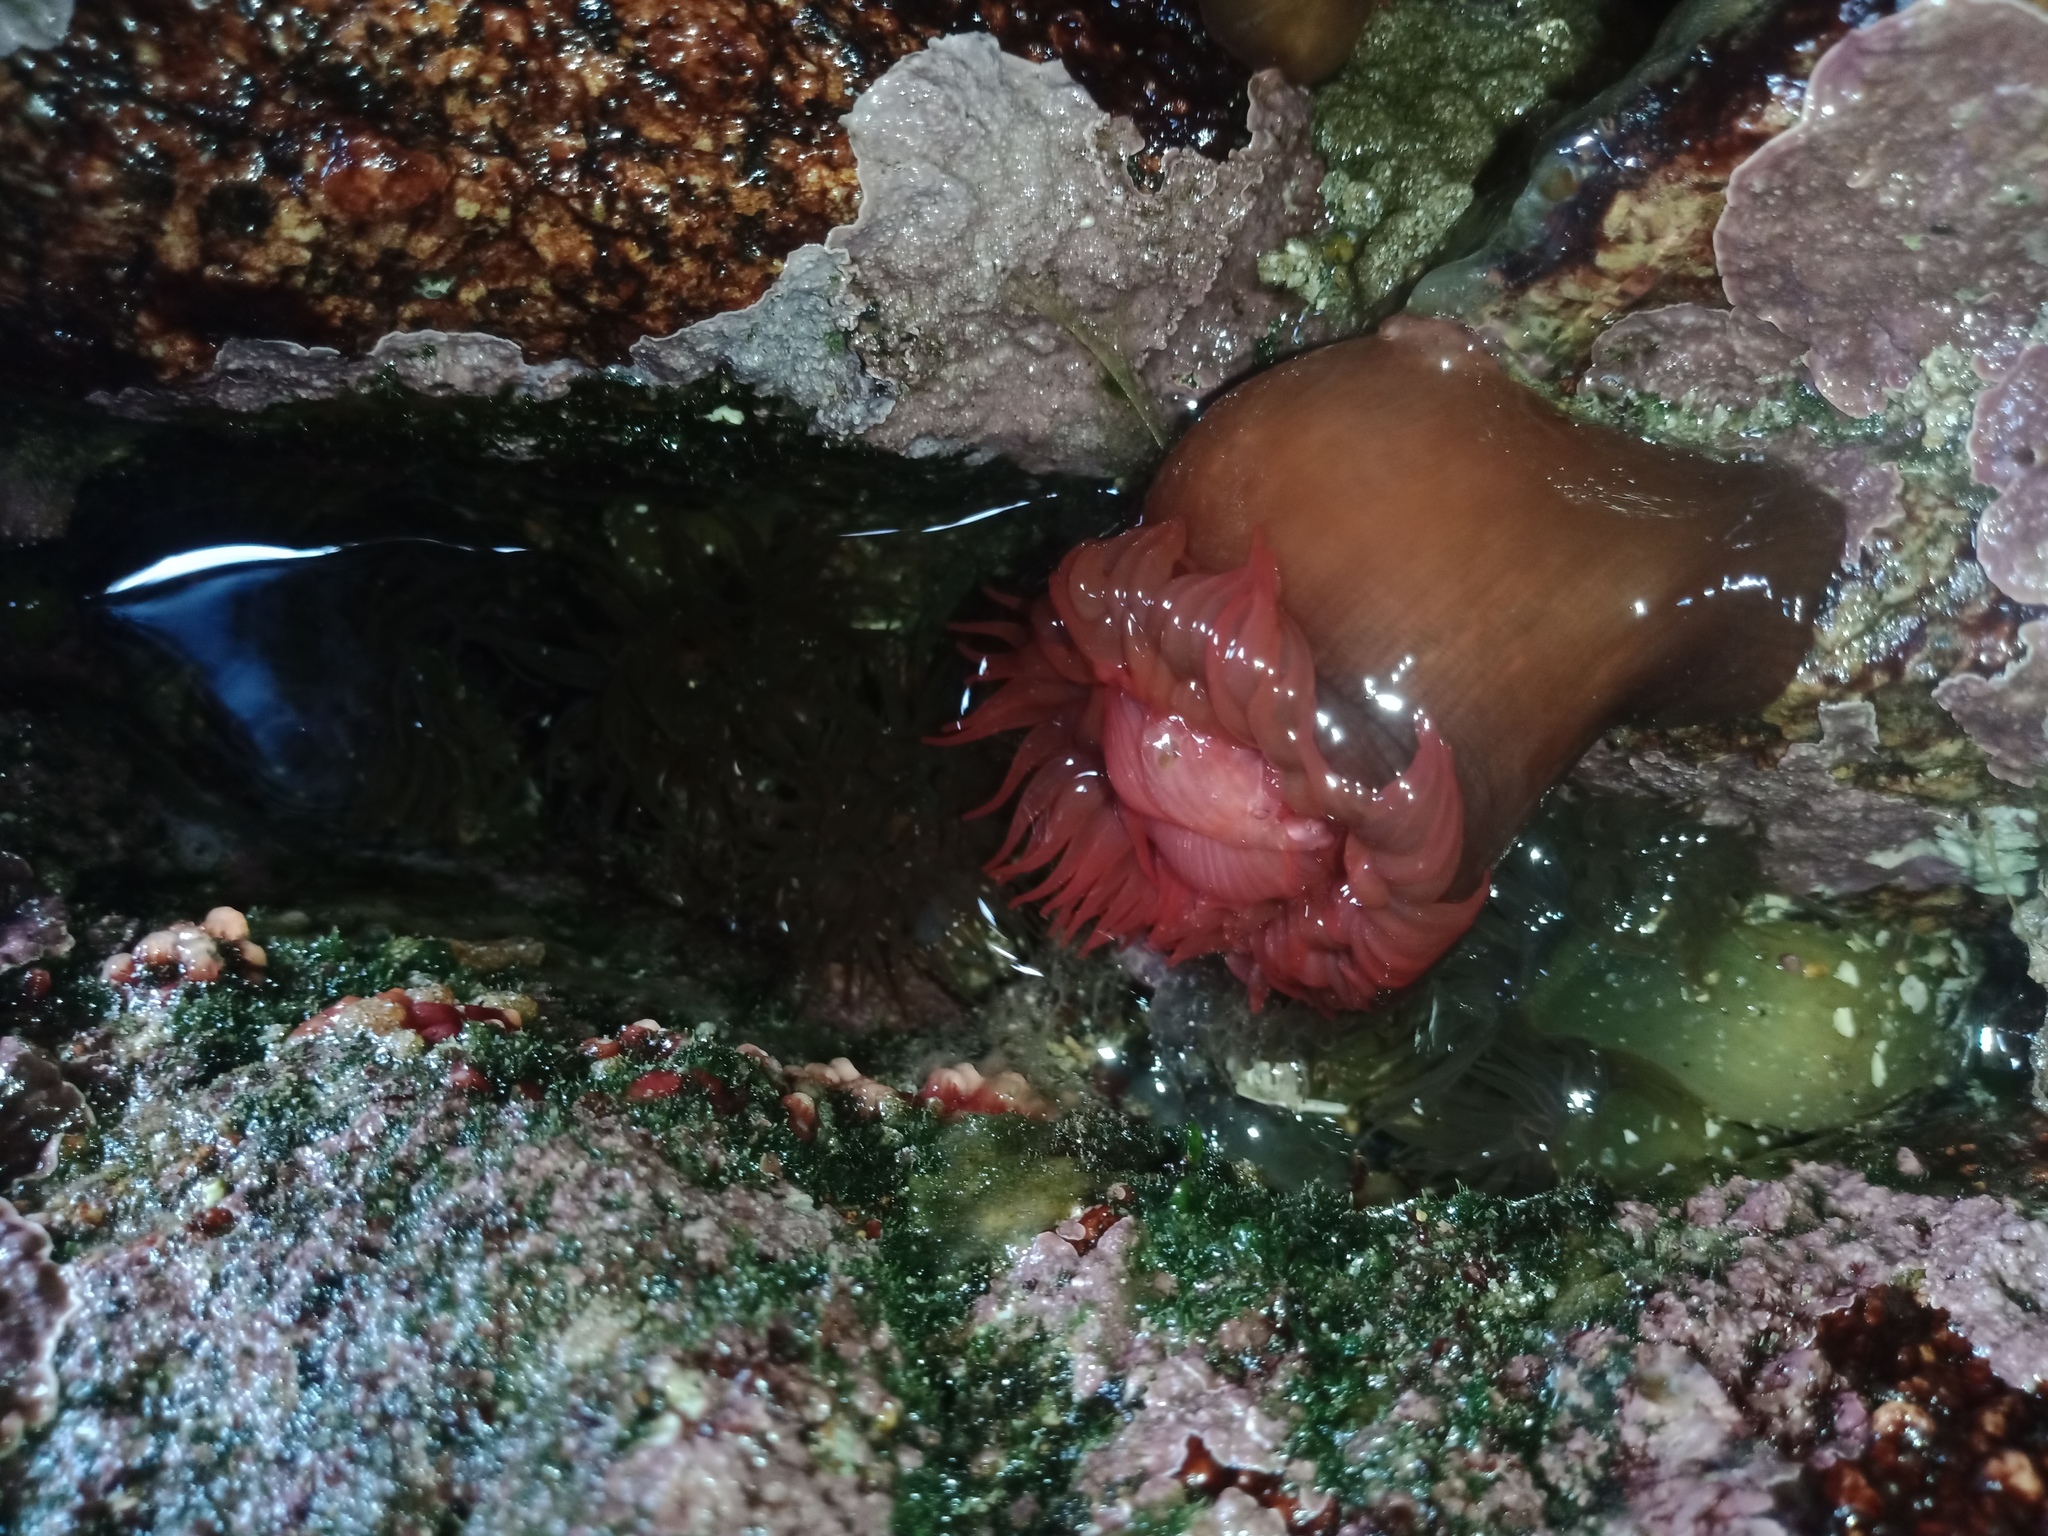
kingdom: Animalia
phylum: Cnidaria
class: Anthozoa
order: Actiniaria
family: Actiniidae
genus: Actinia
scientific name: Actinia tenebrosa
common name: Waratah anemone
